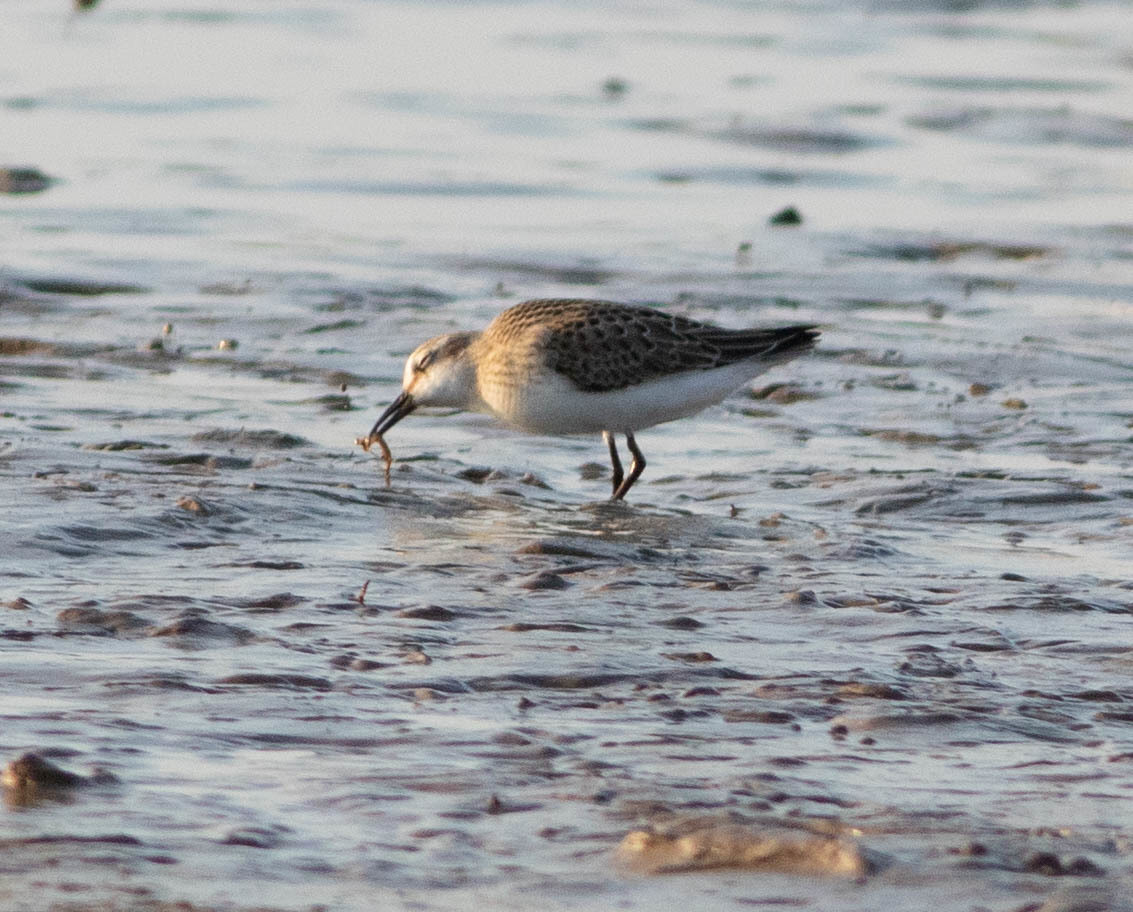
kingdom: Animalia
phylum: Chordata
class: Aves
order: Charadriiformes
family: Scolopacidae
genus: Calidris
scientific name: Calidris pusilla
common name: Semipalmated sandpiper
